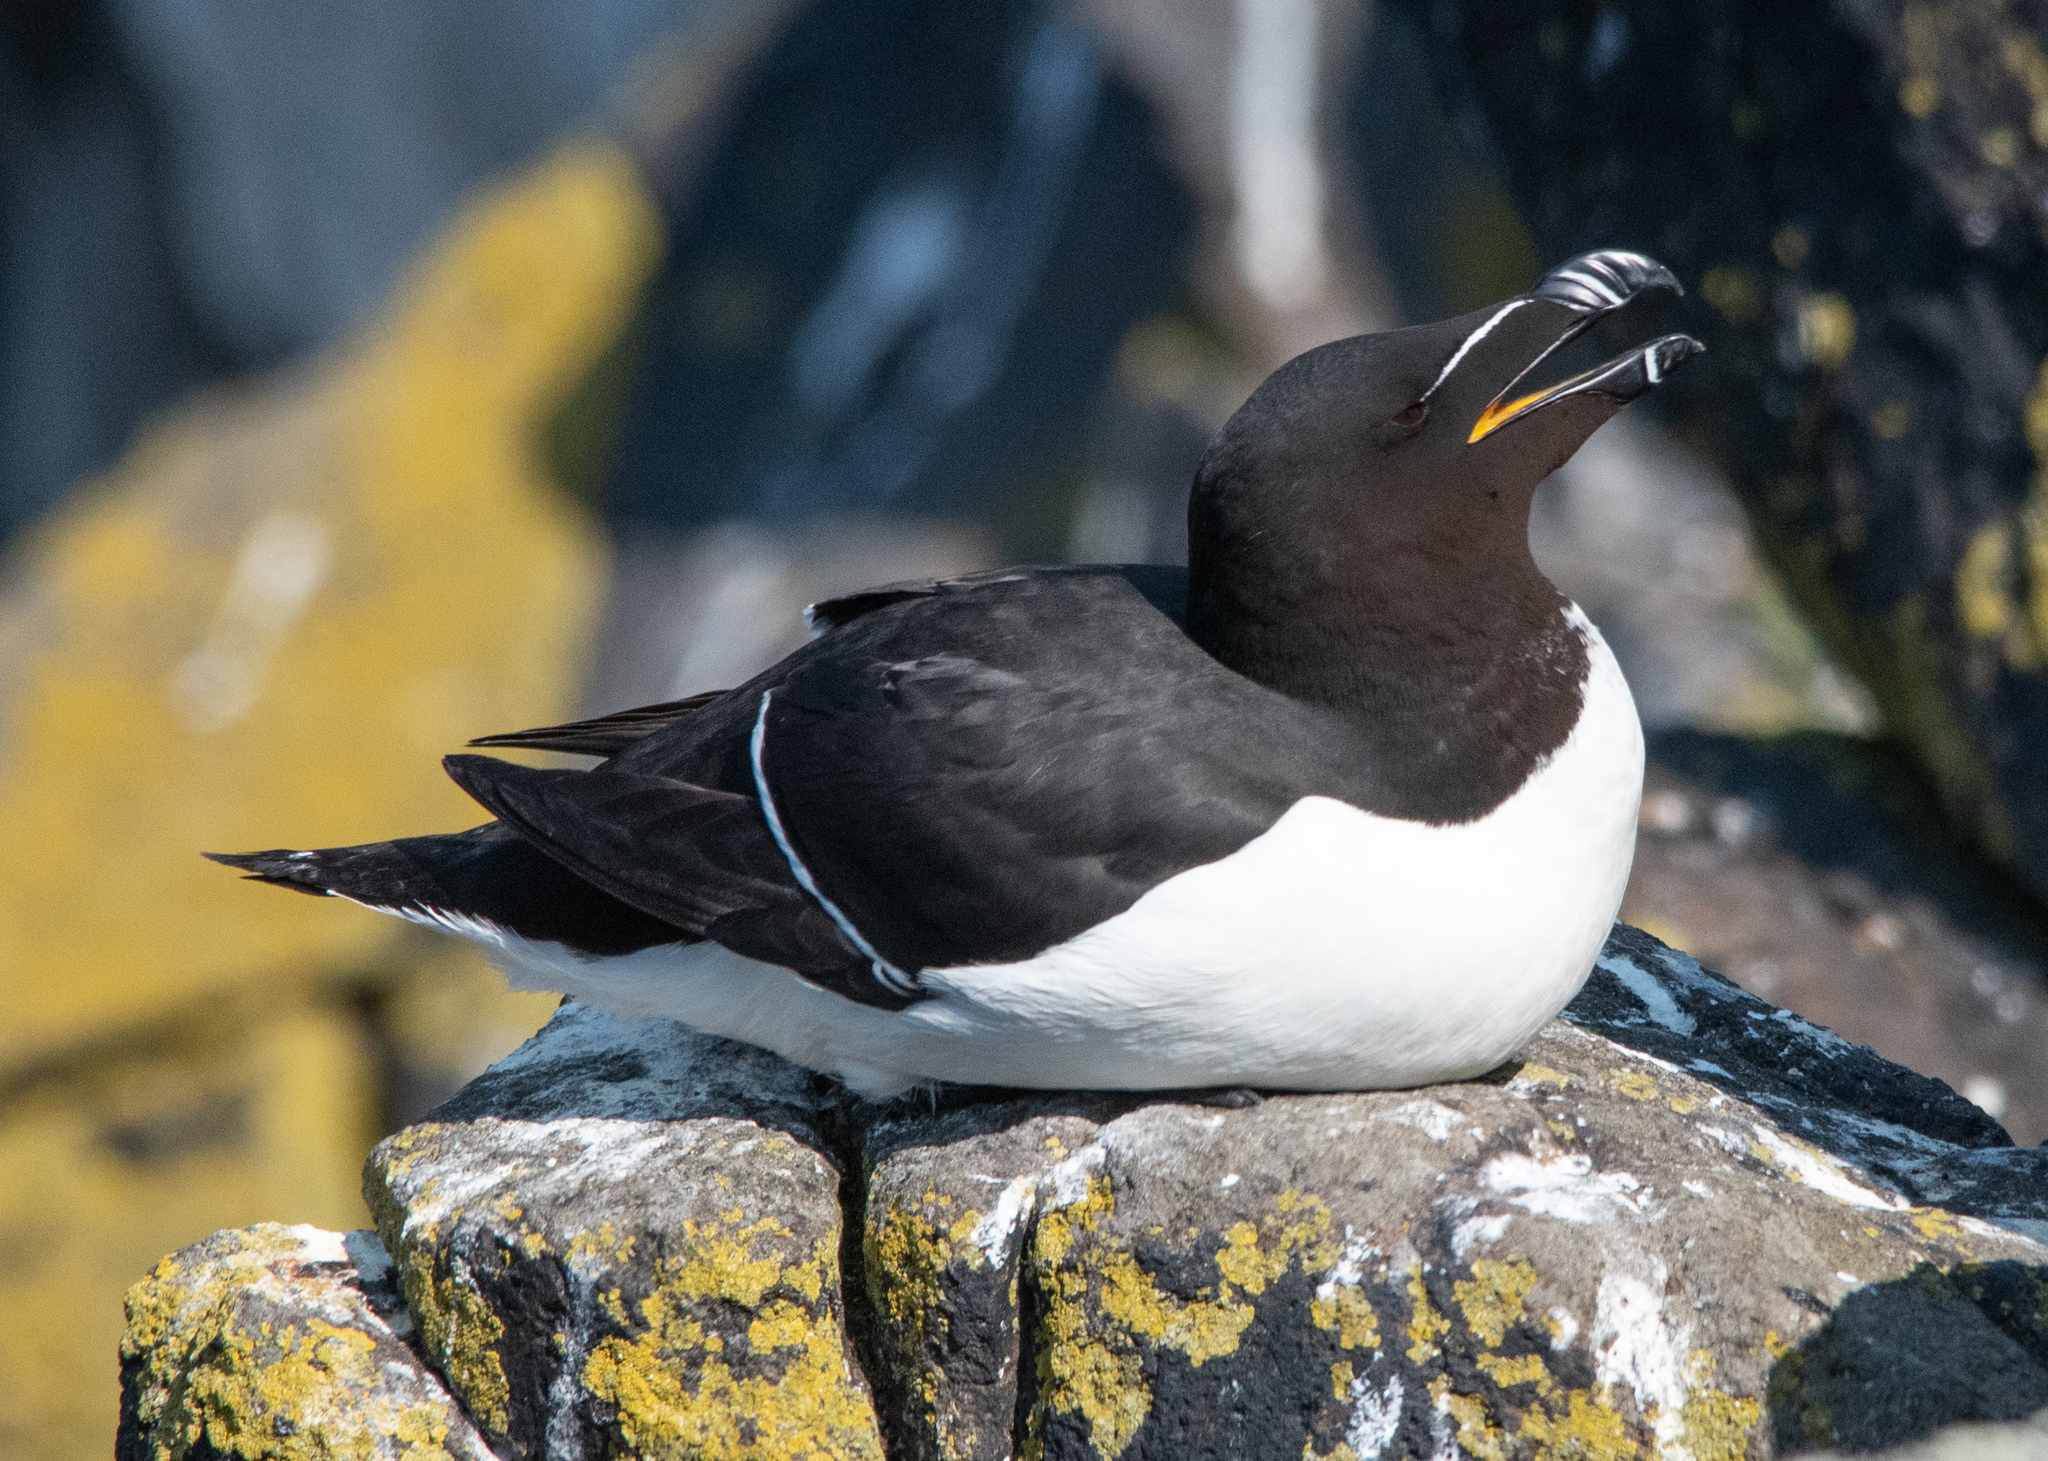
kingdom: Animalia
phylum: Chordata
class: Aves
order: Charadriiformes
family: Alcidae
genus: Alca
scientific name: Alca torda
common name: Razorbill
